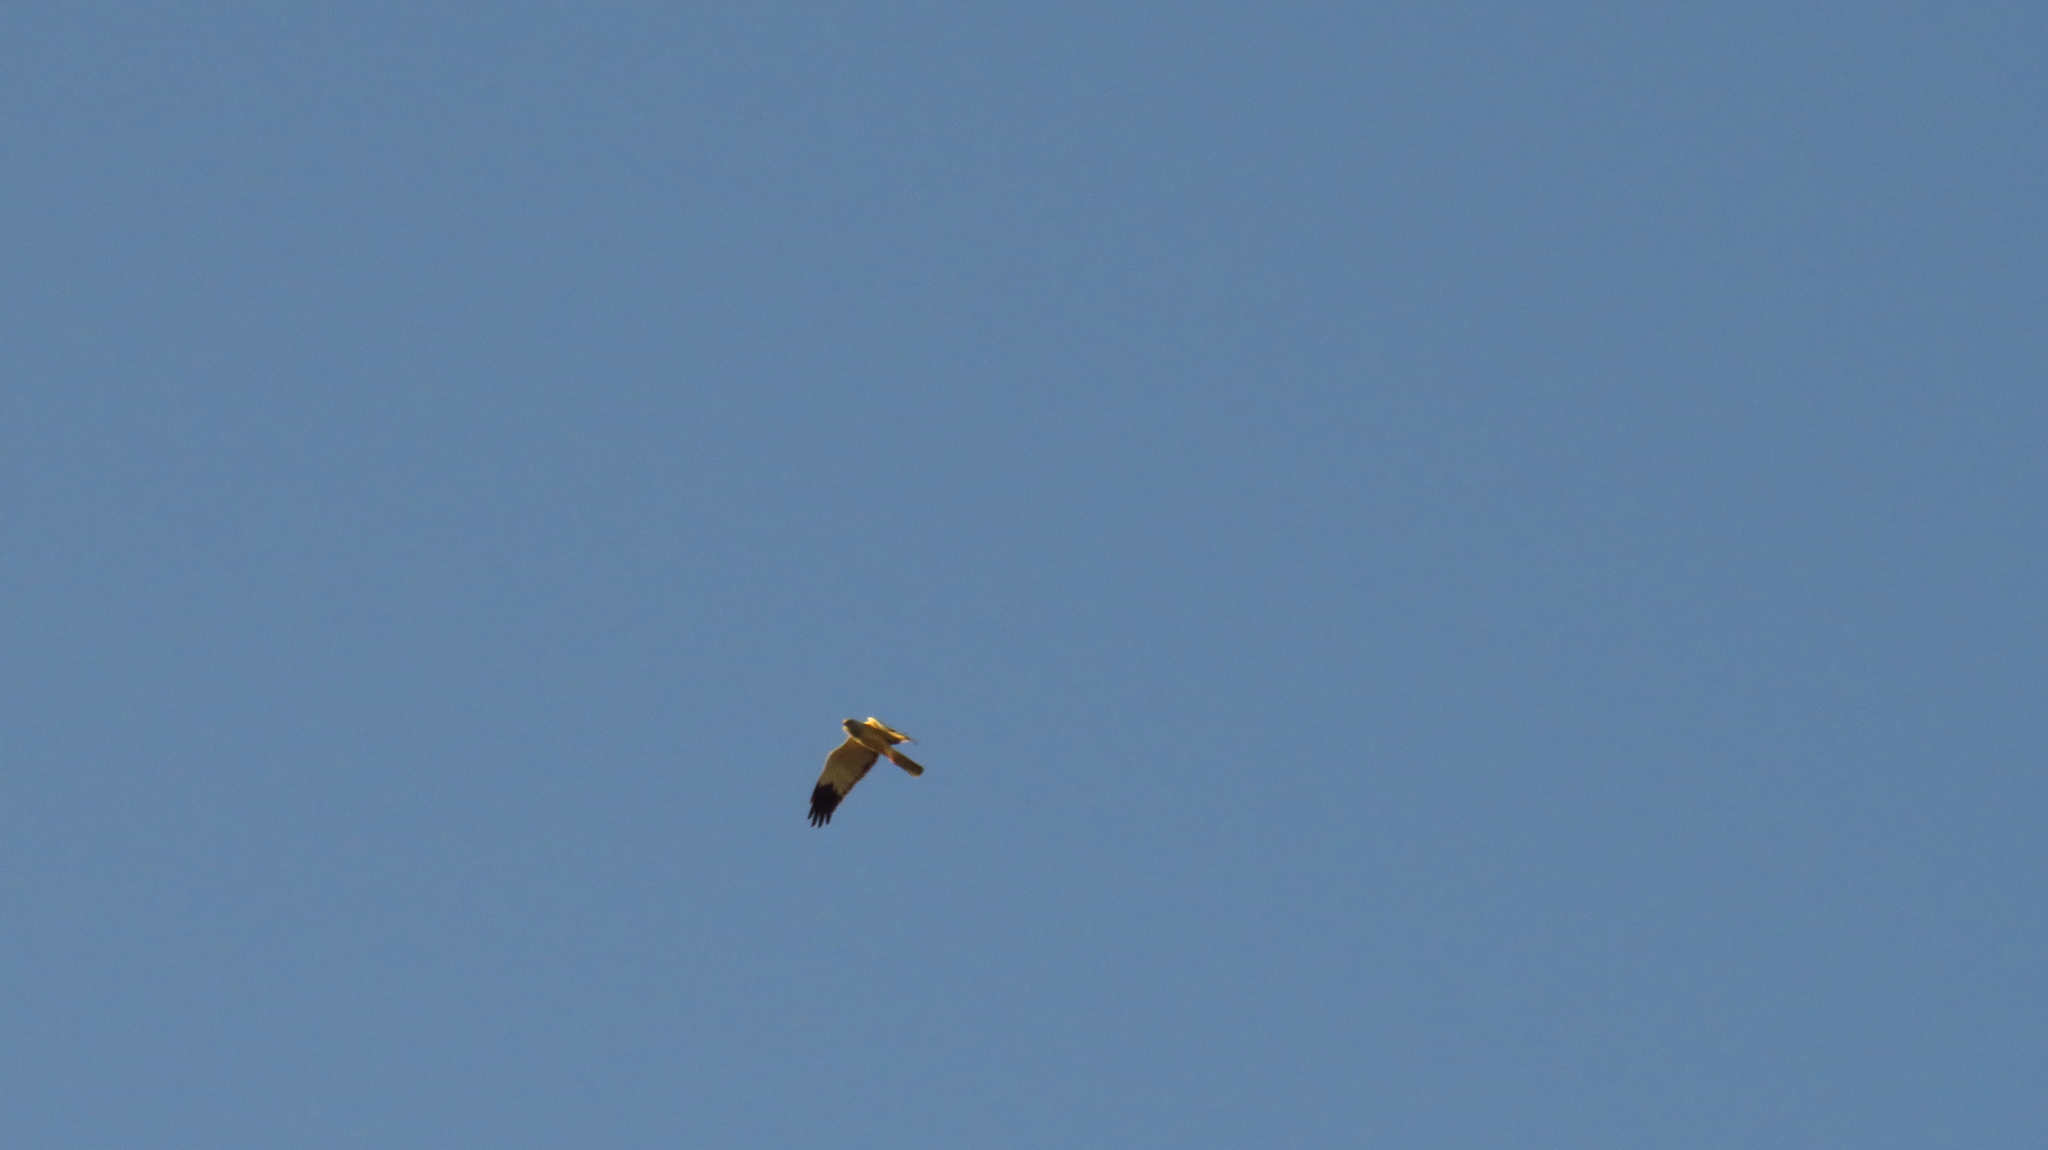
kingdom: Animalia
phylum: Chordata
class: Aves
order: Accipitriformes
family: Accipitridae
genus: Circus
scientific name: Circus cyaneus
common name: Hen harrier
